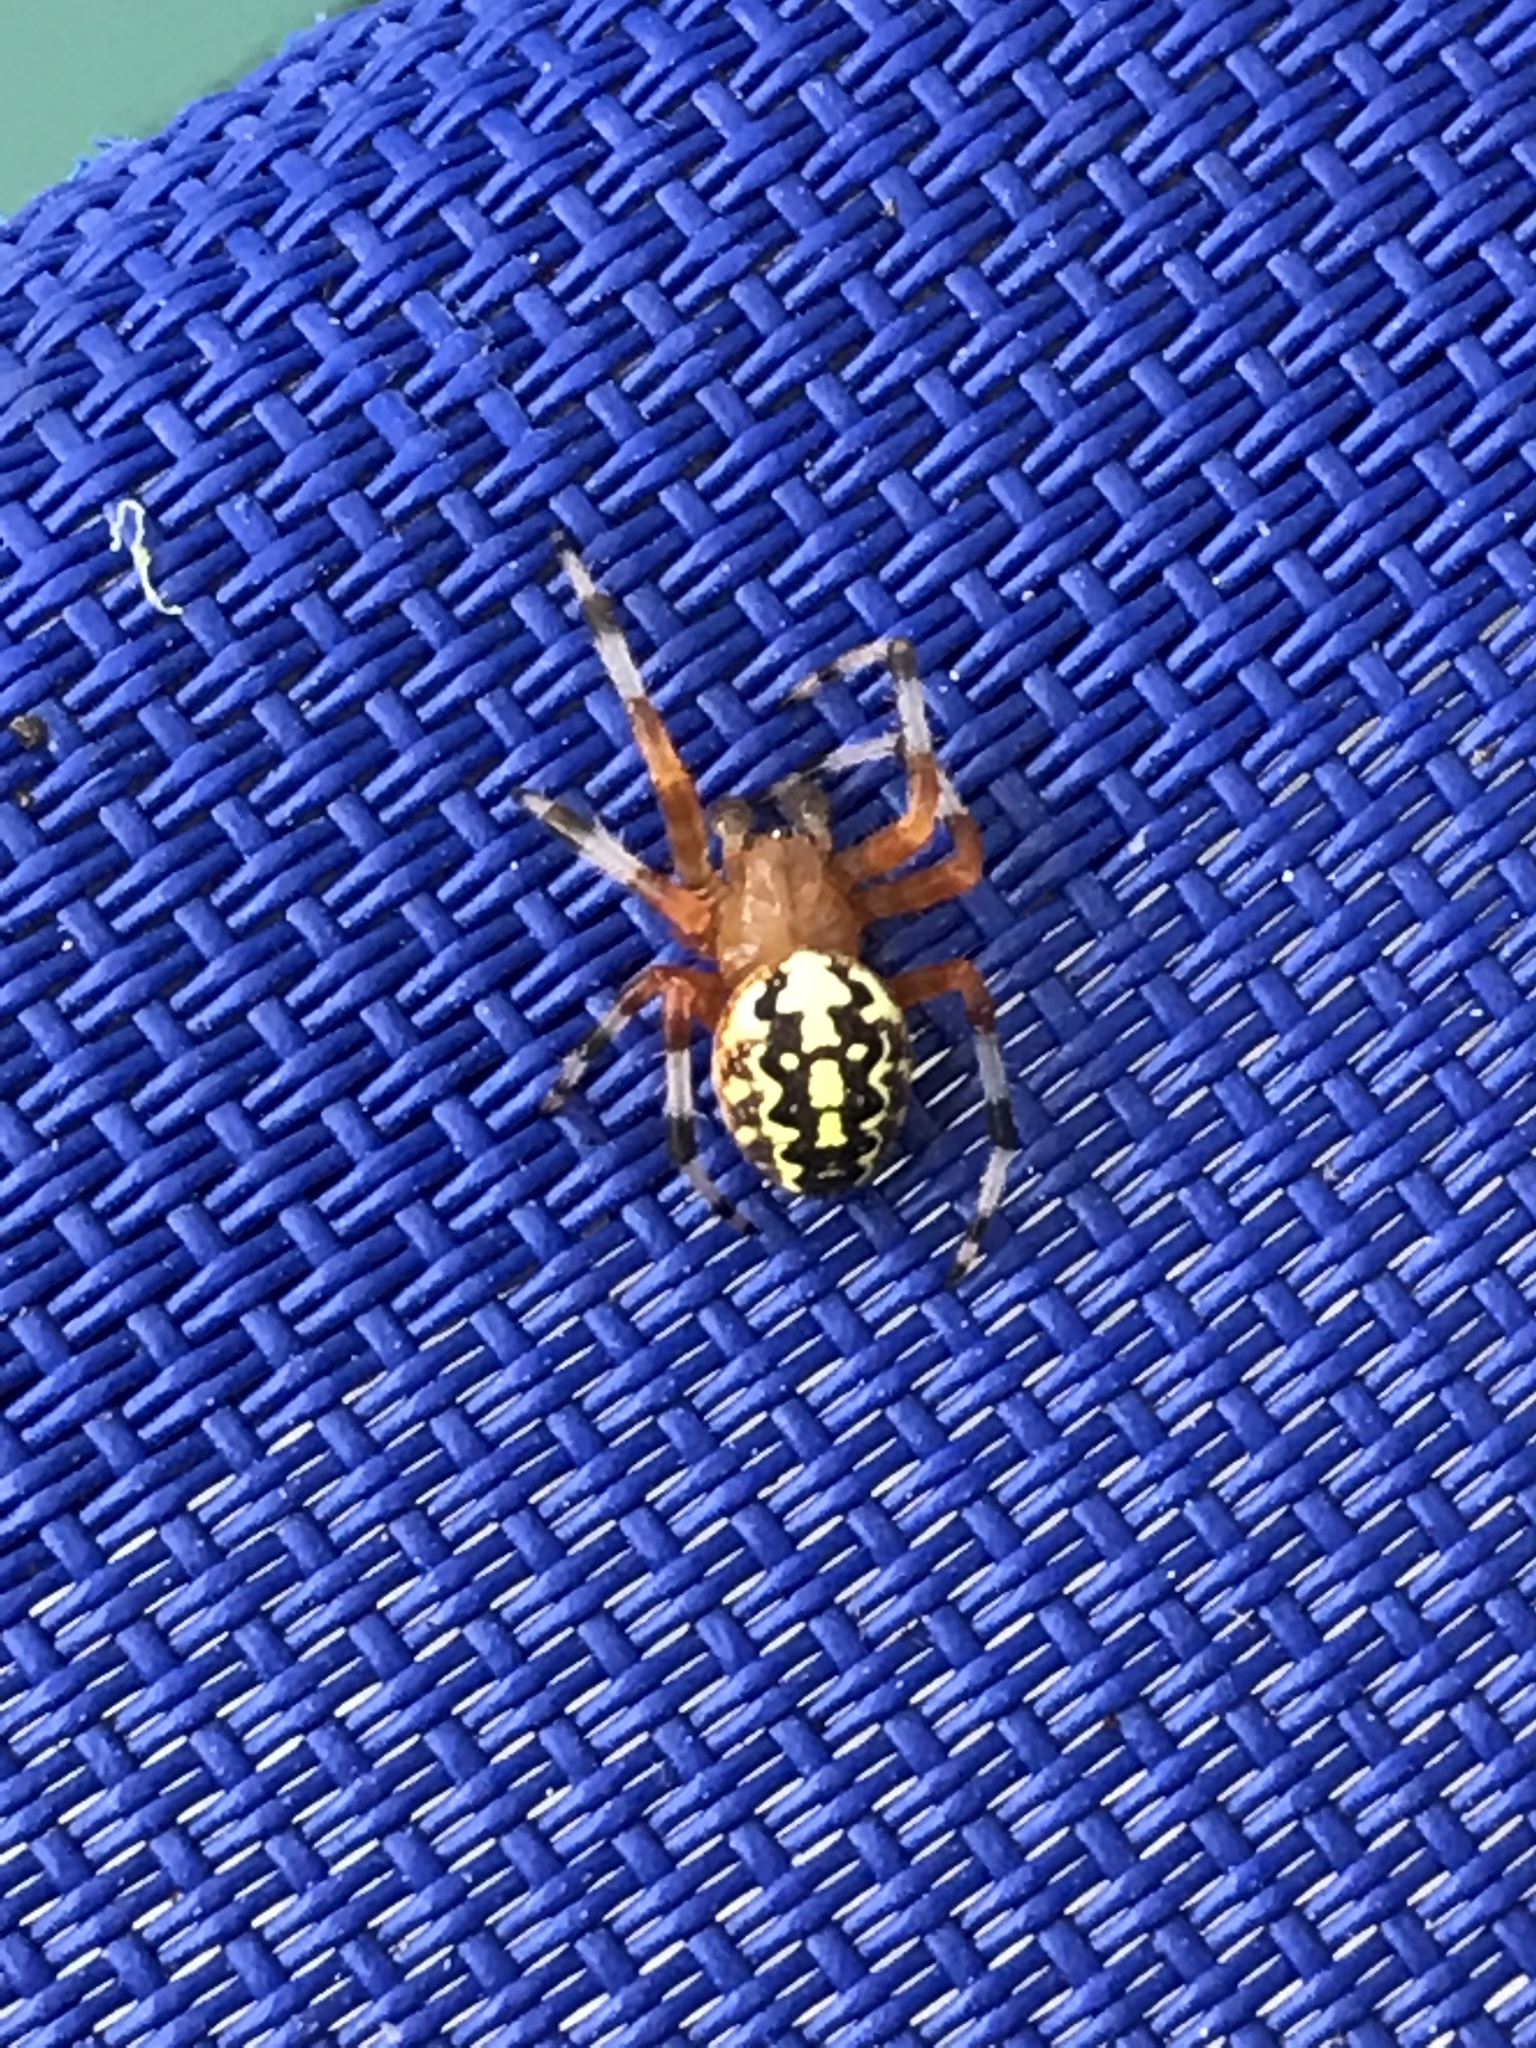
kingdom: Animalia
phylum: Arthropoda
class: Arachnida
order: Araneae
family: Araneidae
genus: Araneus
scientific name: Araneus marmoreus
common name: Marbled orbweaver
